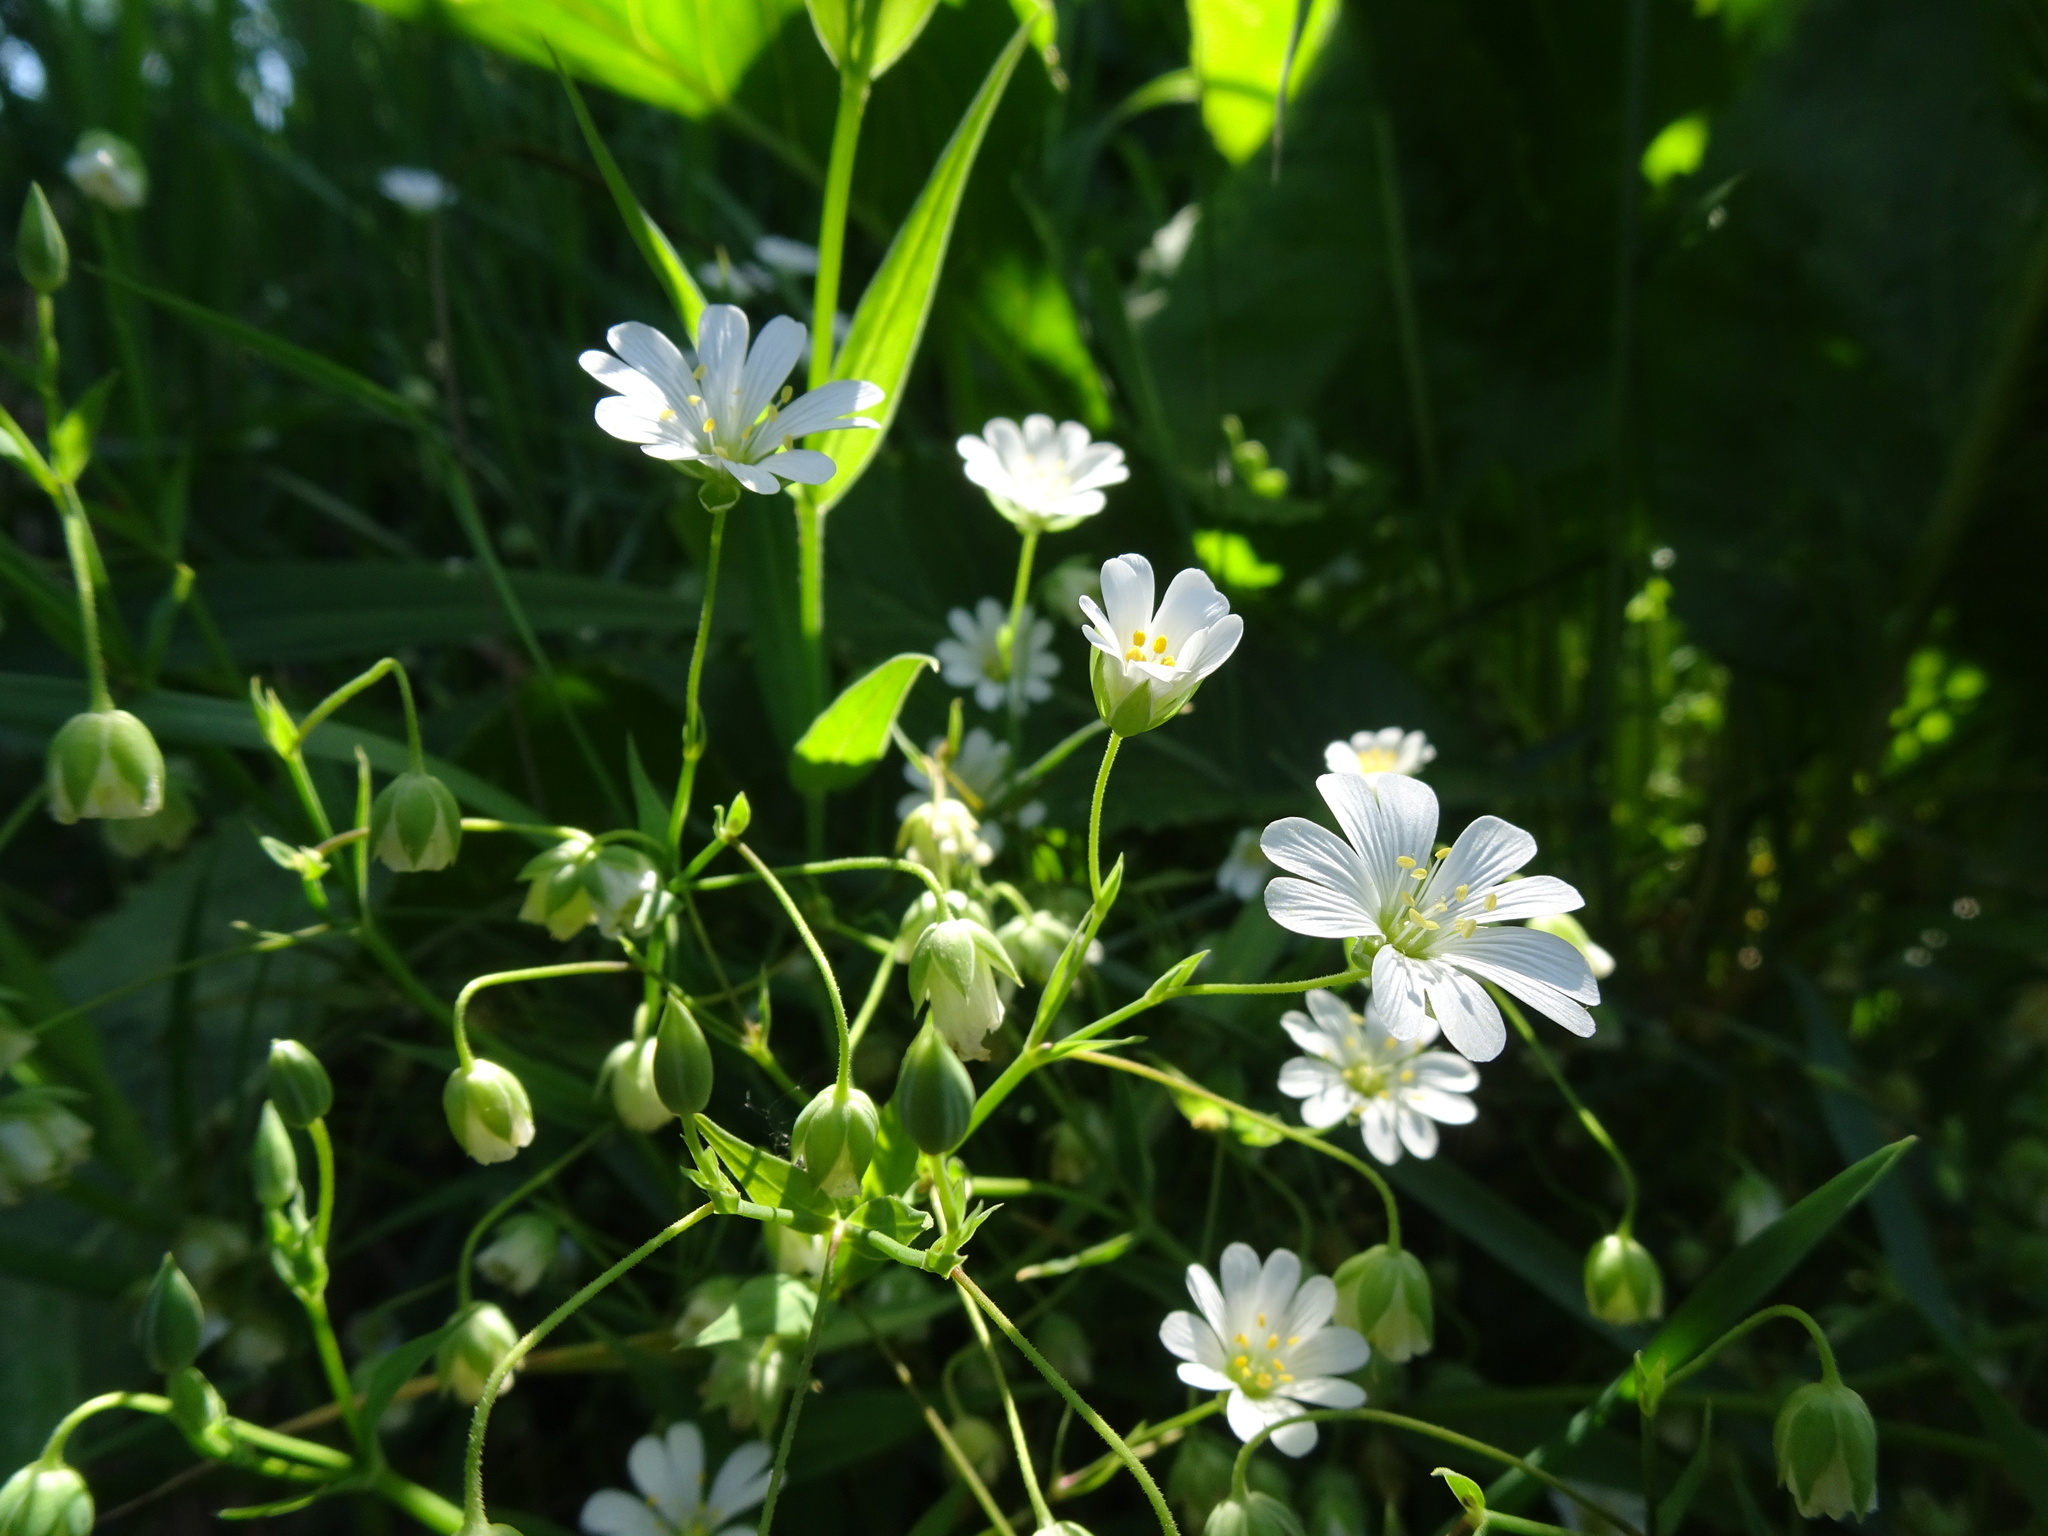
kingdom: Plantae
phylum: Tracheophyta
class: Magnoliopsida
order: Caryophyllales
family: Caryophyllaceae
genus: Rabelera
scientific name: Rabelera holostea
